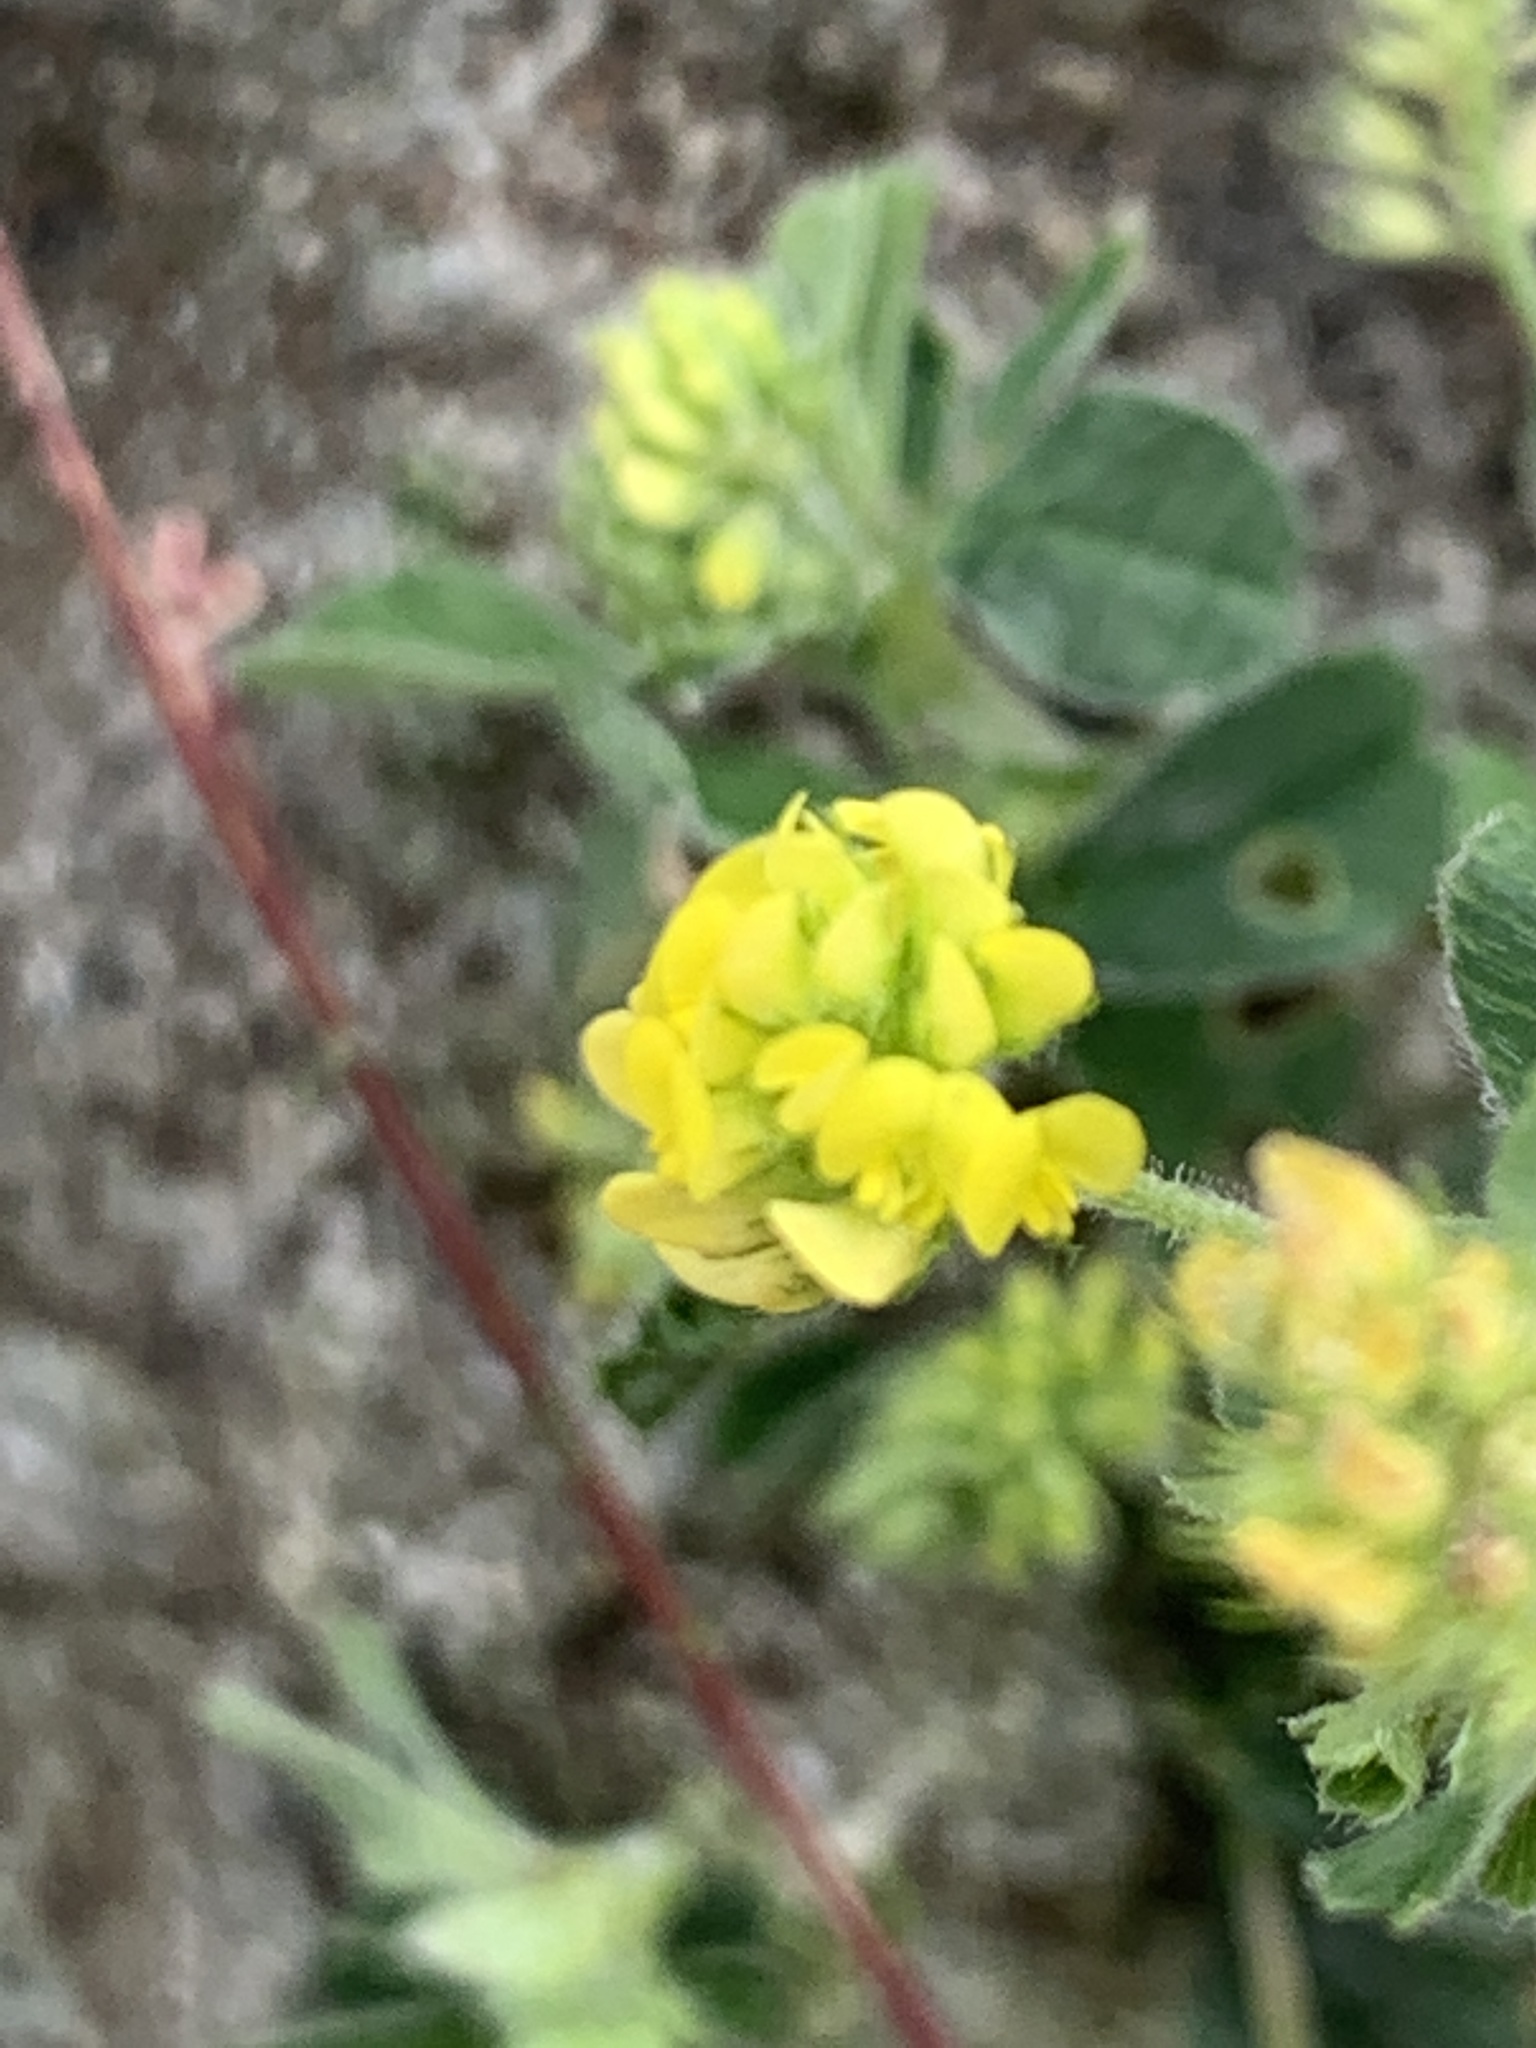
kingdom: Plantae
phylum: Tracheophyta
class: Magnoliopsida
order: Fabales
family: Fabaceae
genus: Medicago
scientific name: Medicago lupulina
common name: Black medick
